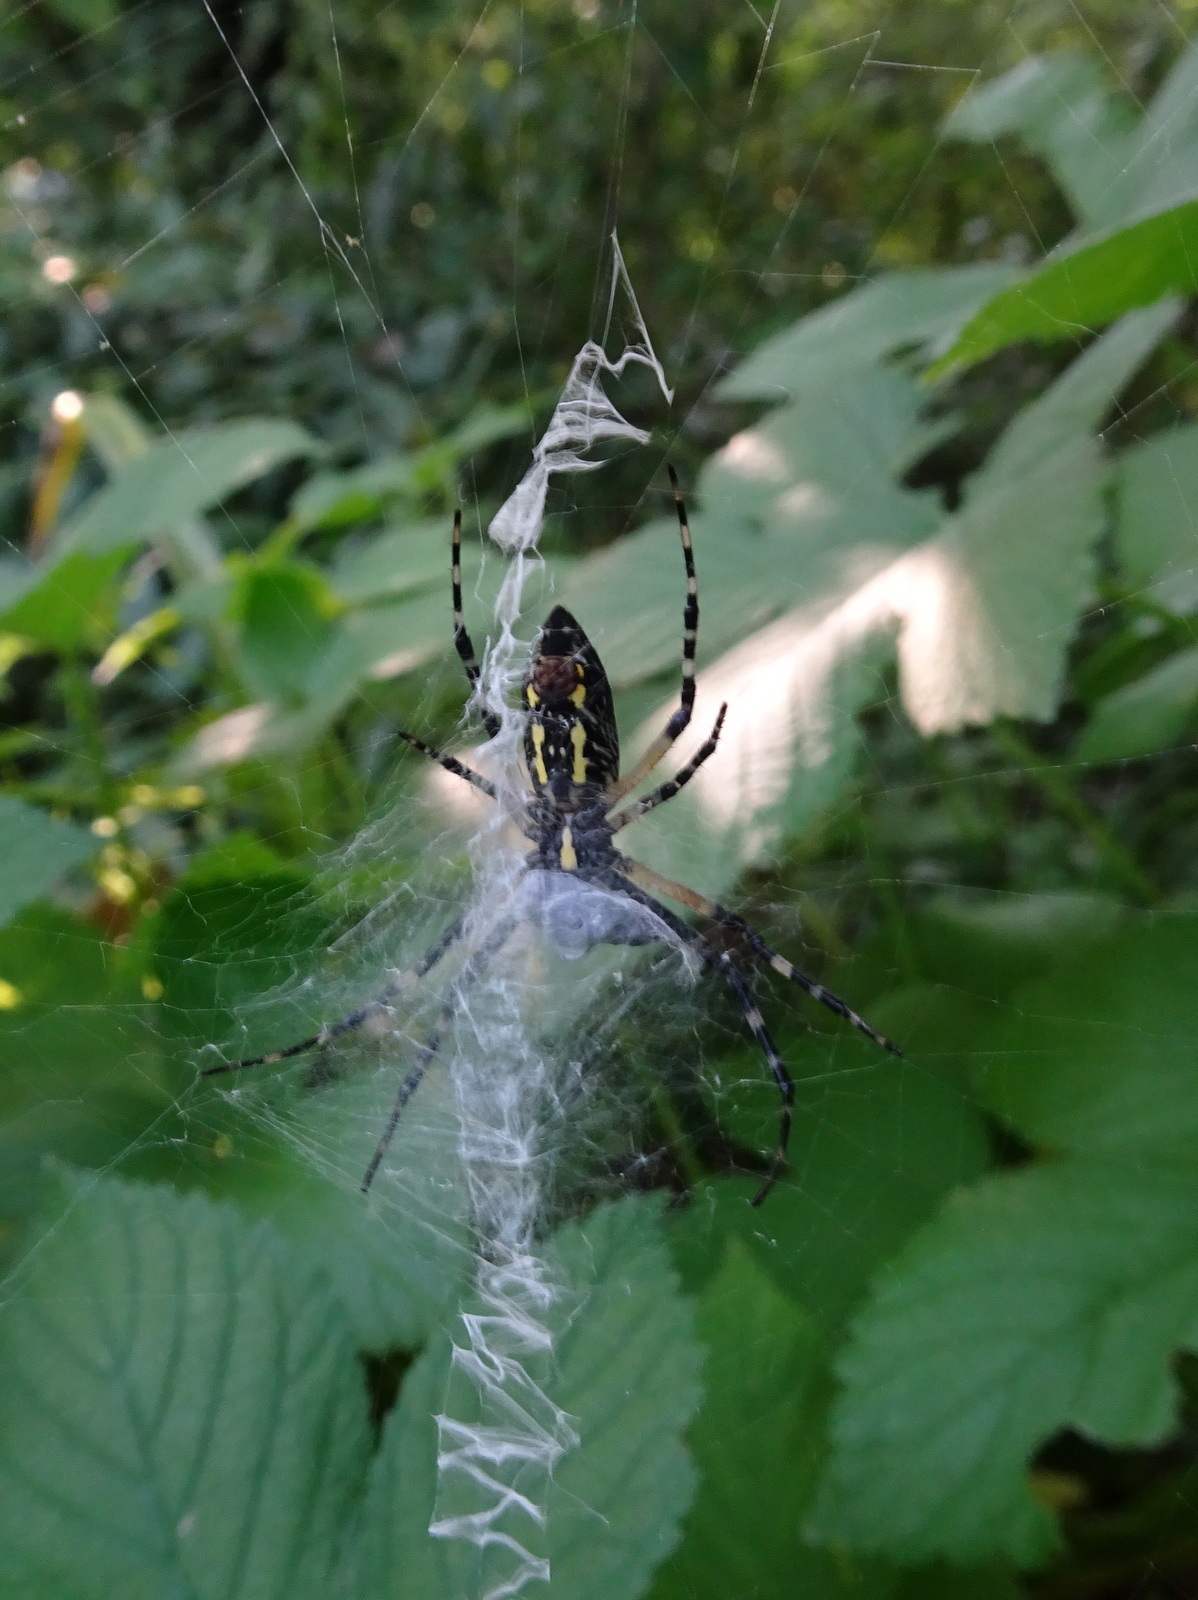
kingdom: Animalia
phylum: Arthropoda
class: Arachnida
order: Araneae
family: Araneidae
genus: Argiope
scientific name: Argiope aurantia
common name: Orb weavers
